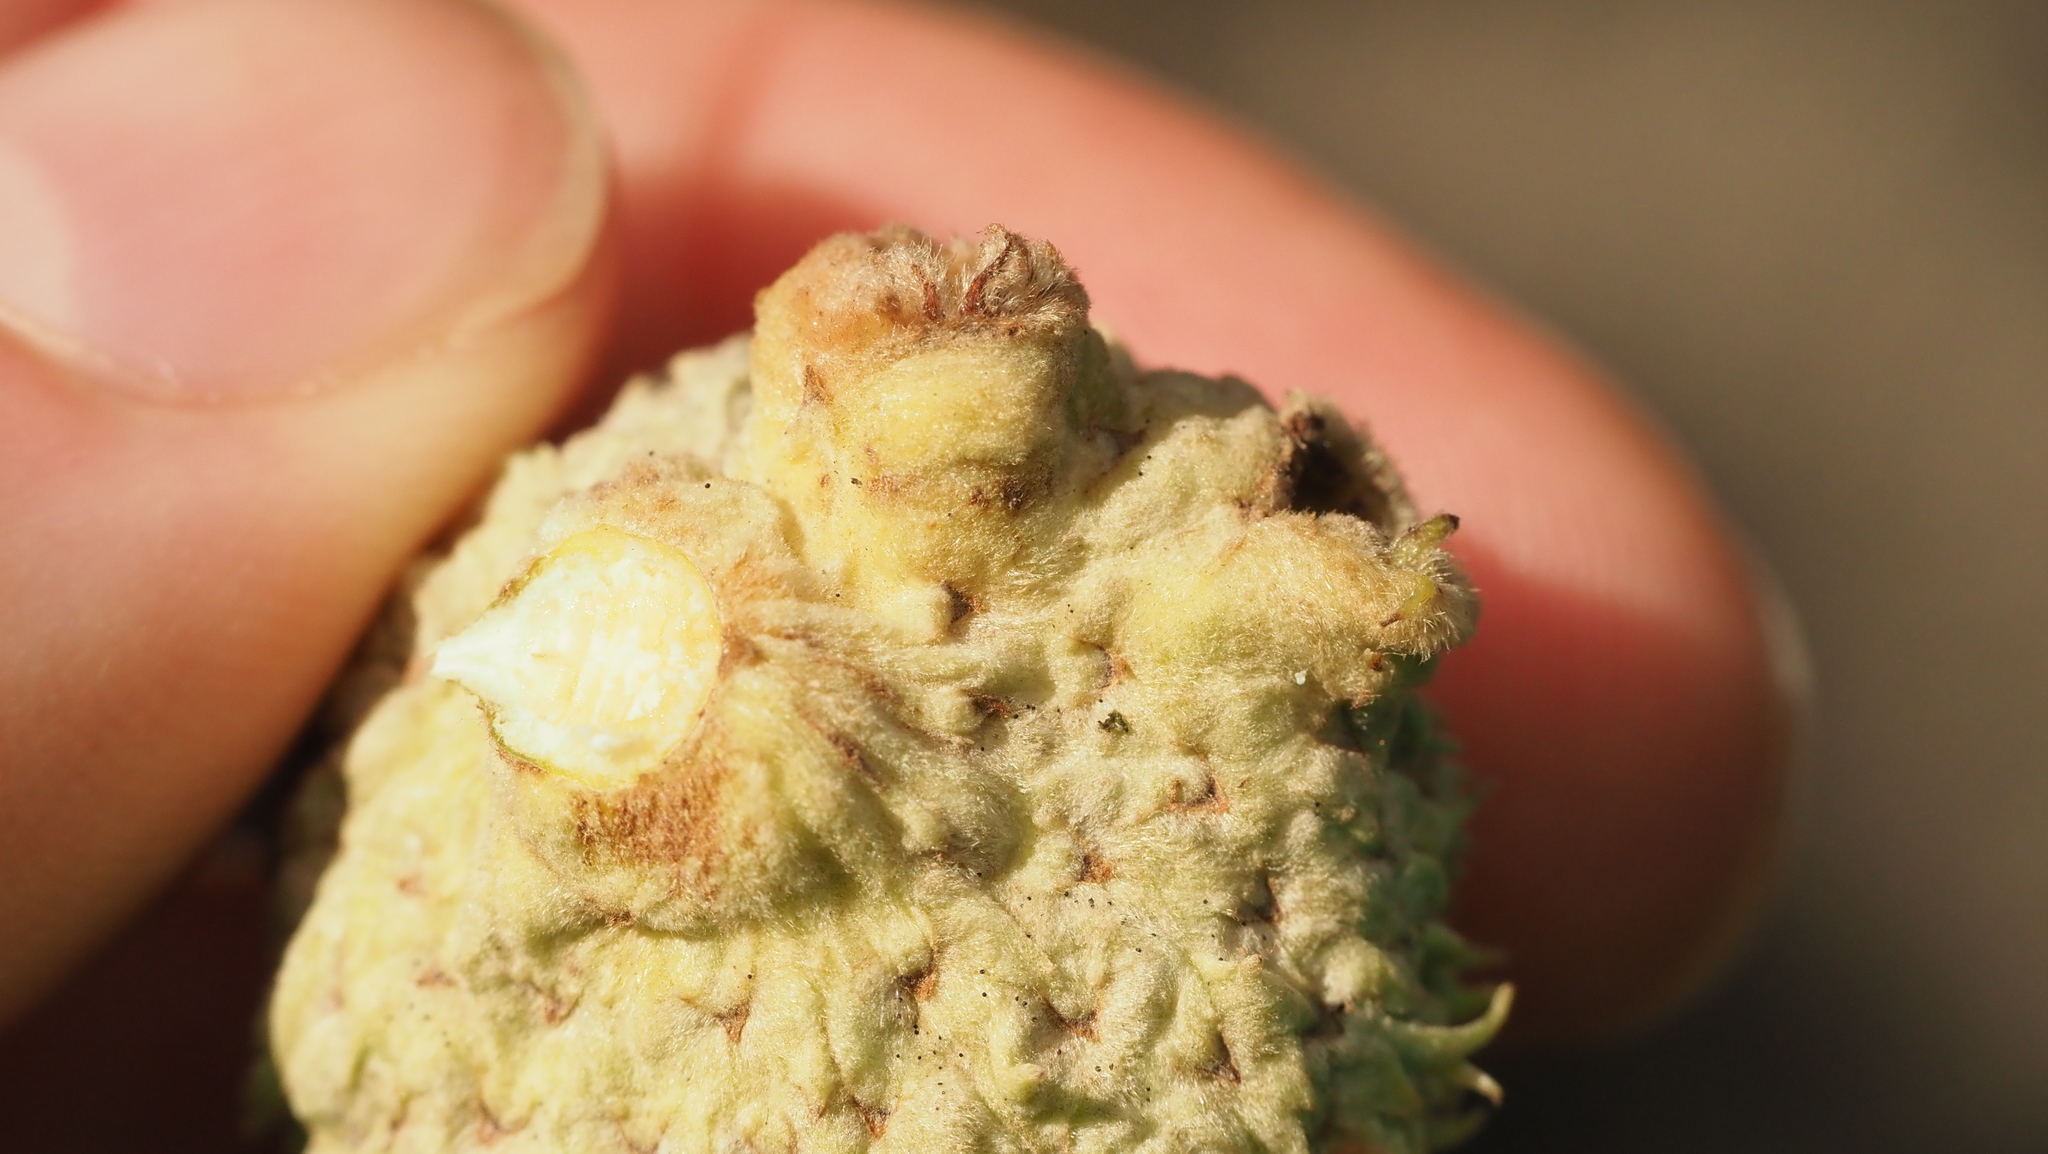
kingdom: Animalia
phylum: Arthropoda
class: Insecta
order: Hymenoptera
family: Cynipidae
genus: Callirhytis
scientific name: Callirhytis glandium
